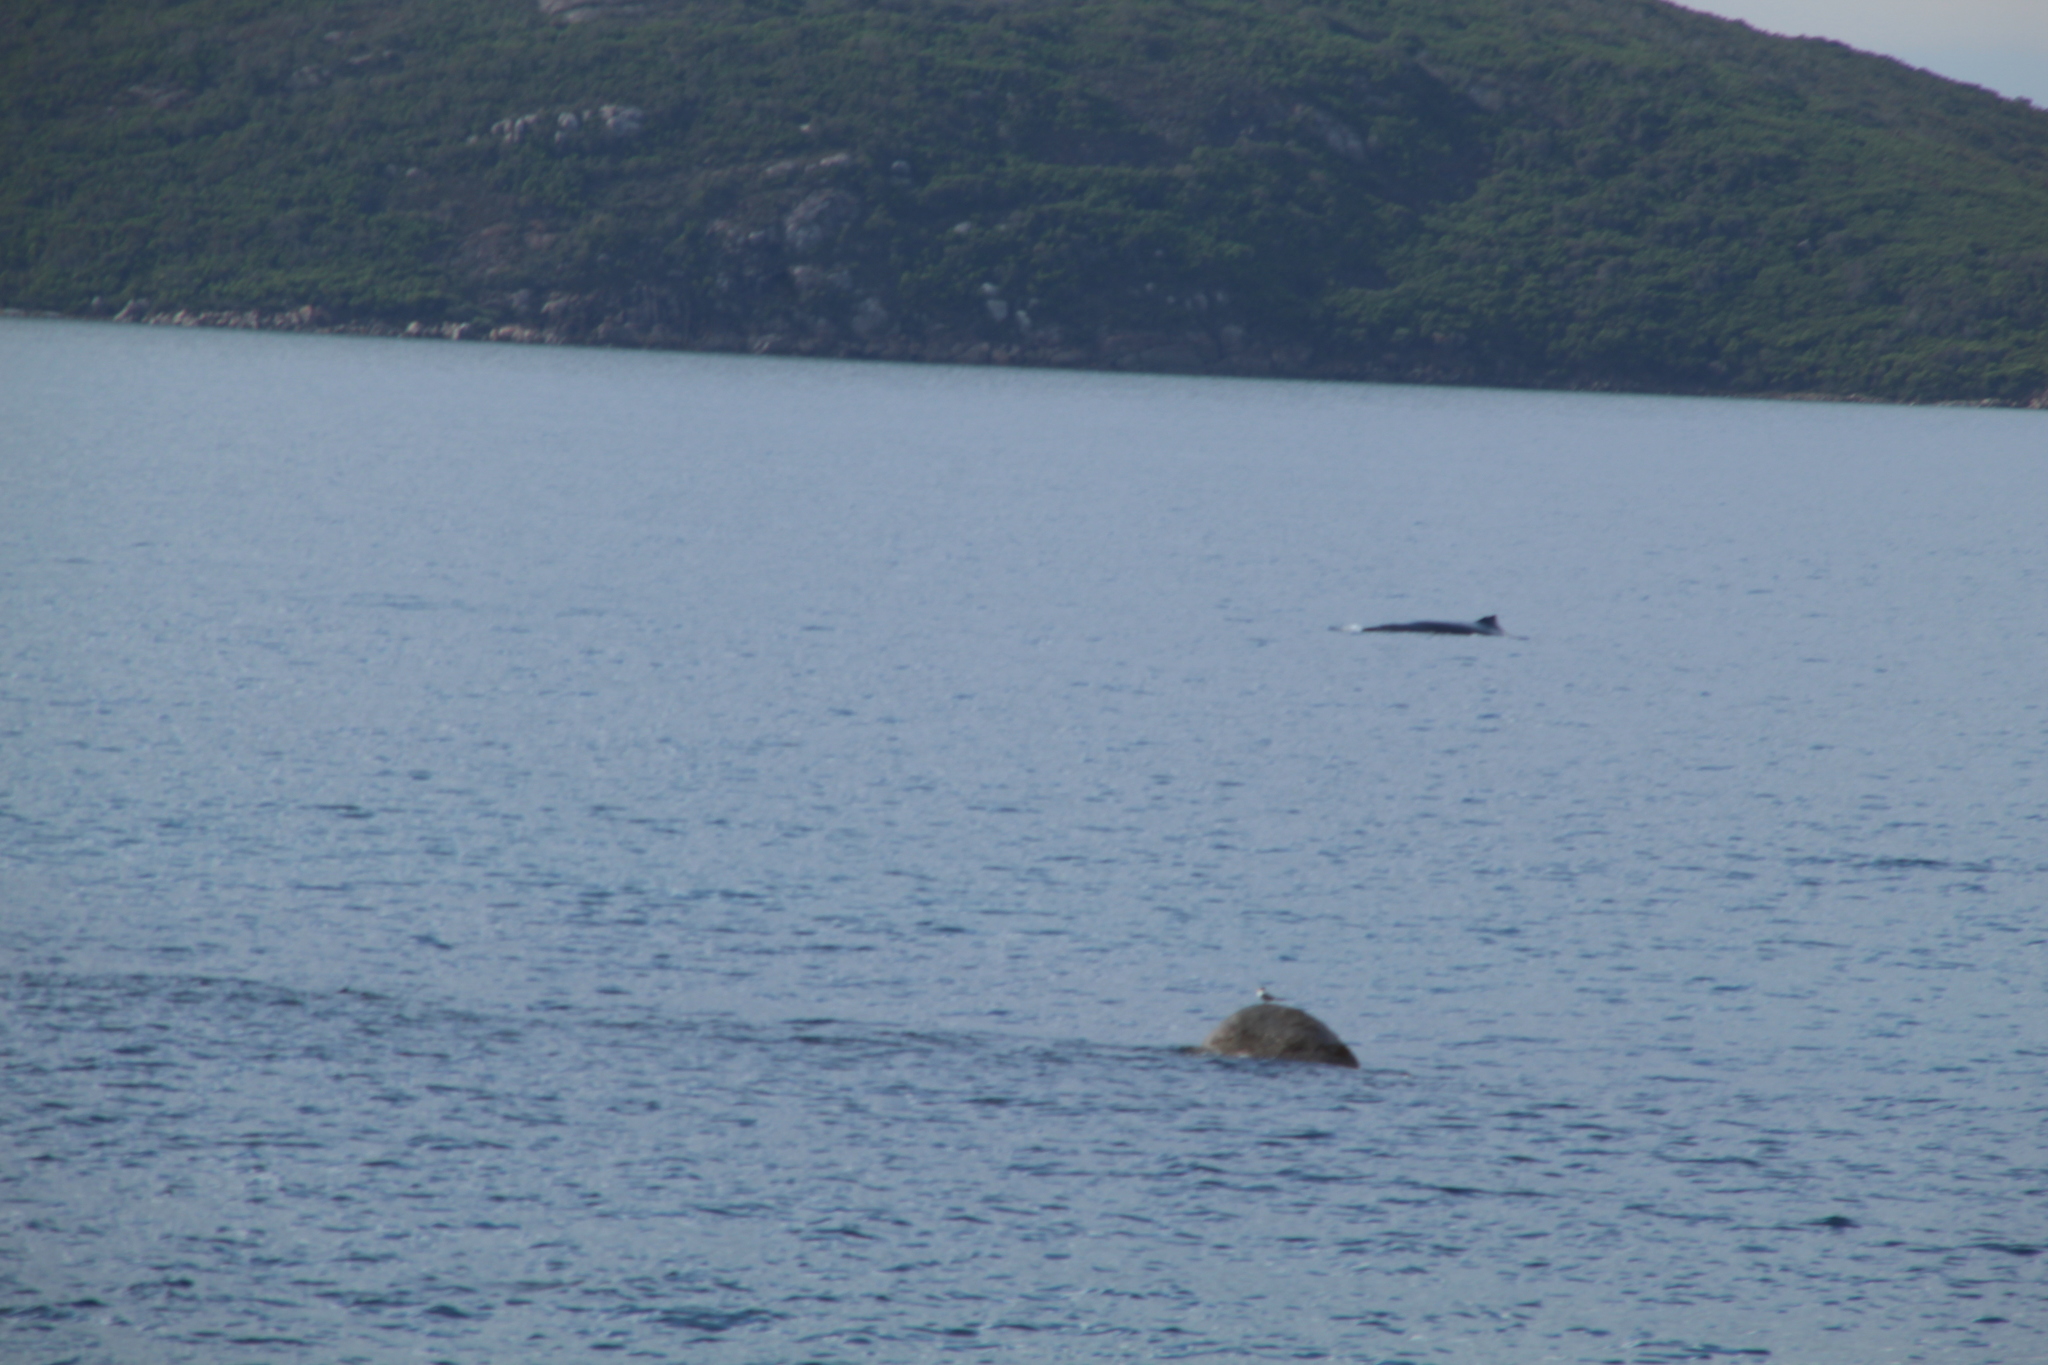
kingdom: Animalia
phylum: Chordata
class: Mammalia
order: Cetacea
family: Balaenopteridae
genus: Megaptera
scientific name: Megaptera novaeangliae
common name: Humpback whale
